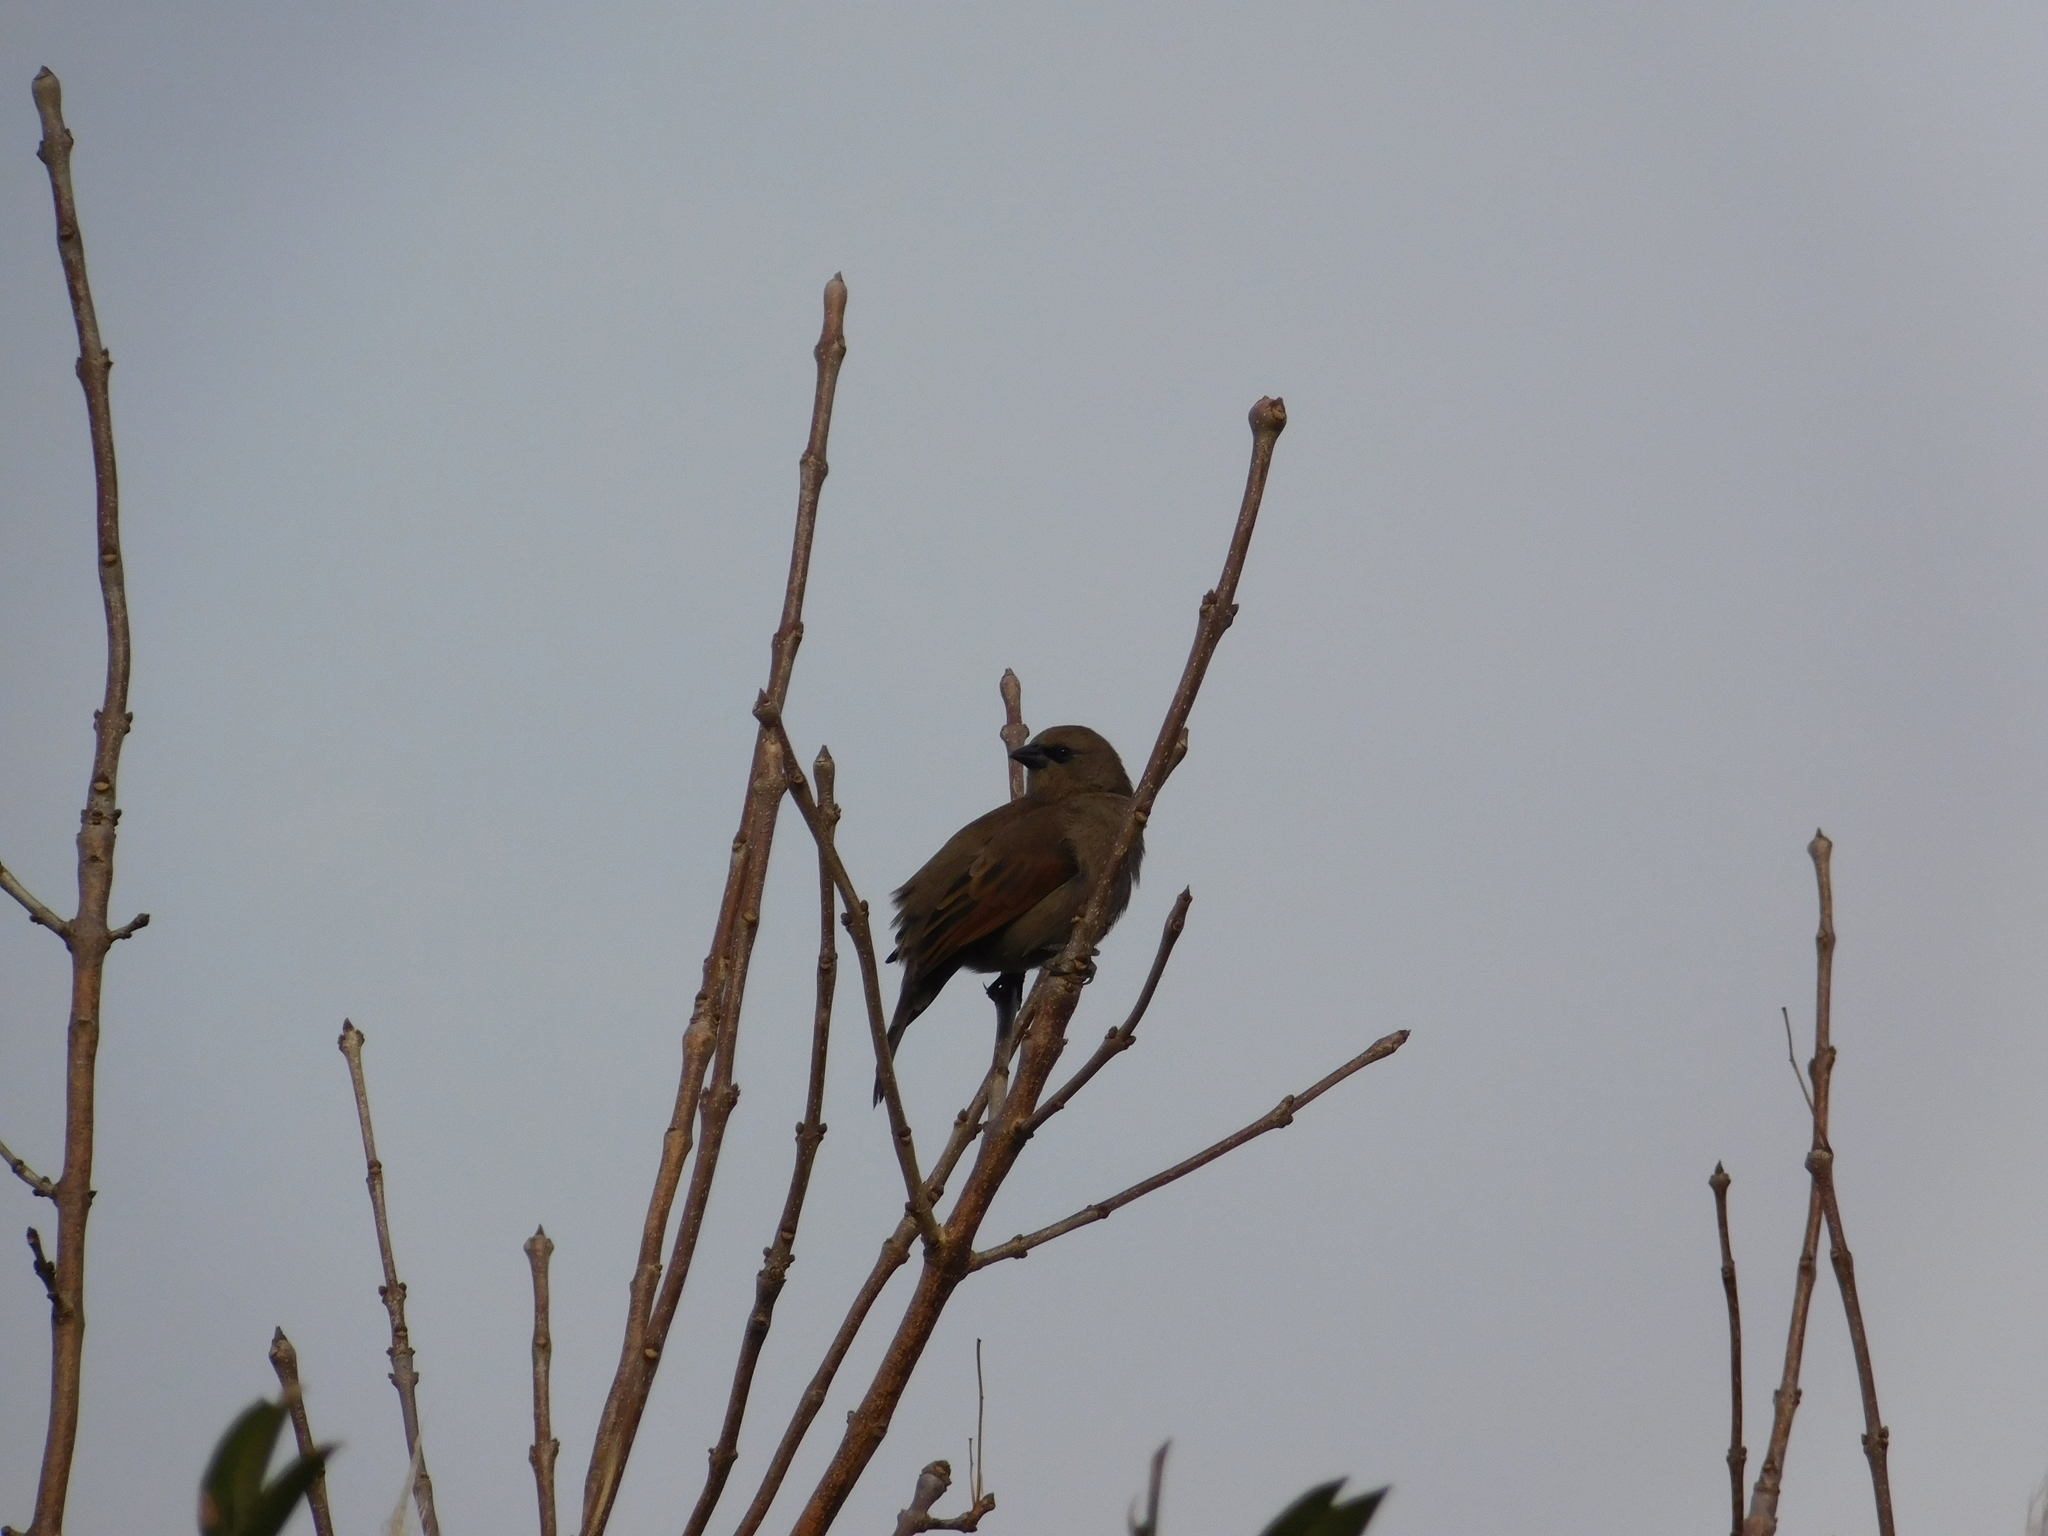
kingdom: Animalia
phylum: Chordata
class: Aves
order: Passeriformes
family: Icteridae
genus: Agelaioides
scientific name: Agelaioides badius
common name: Baywing
